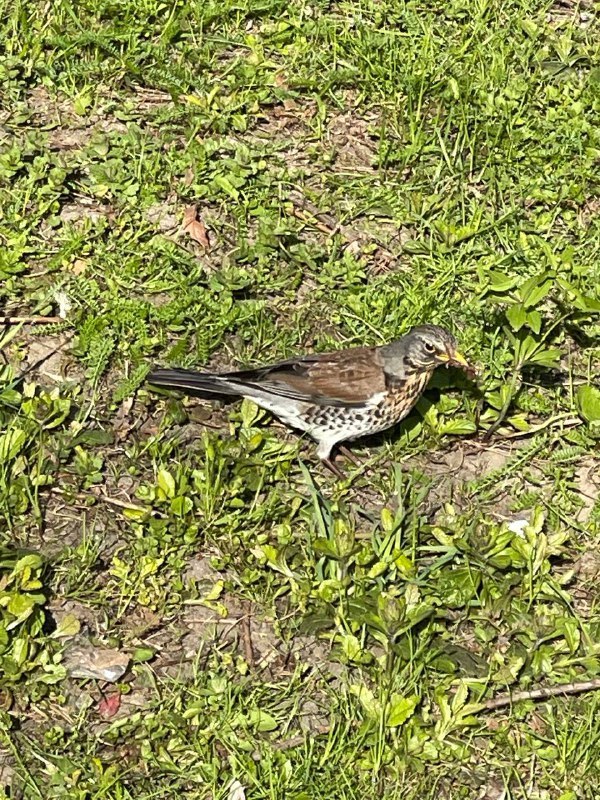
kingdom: Animalia
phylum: Chordata
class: Aves
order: Passeriformes
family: Turdidae
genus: Turdus
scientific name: Turdus pilaris
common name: Fieldfare
